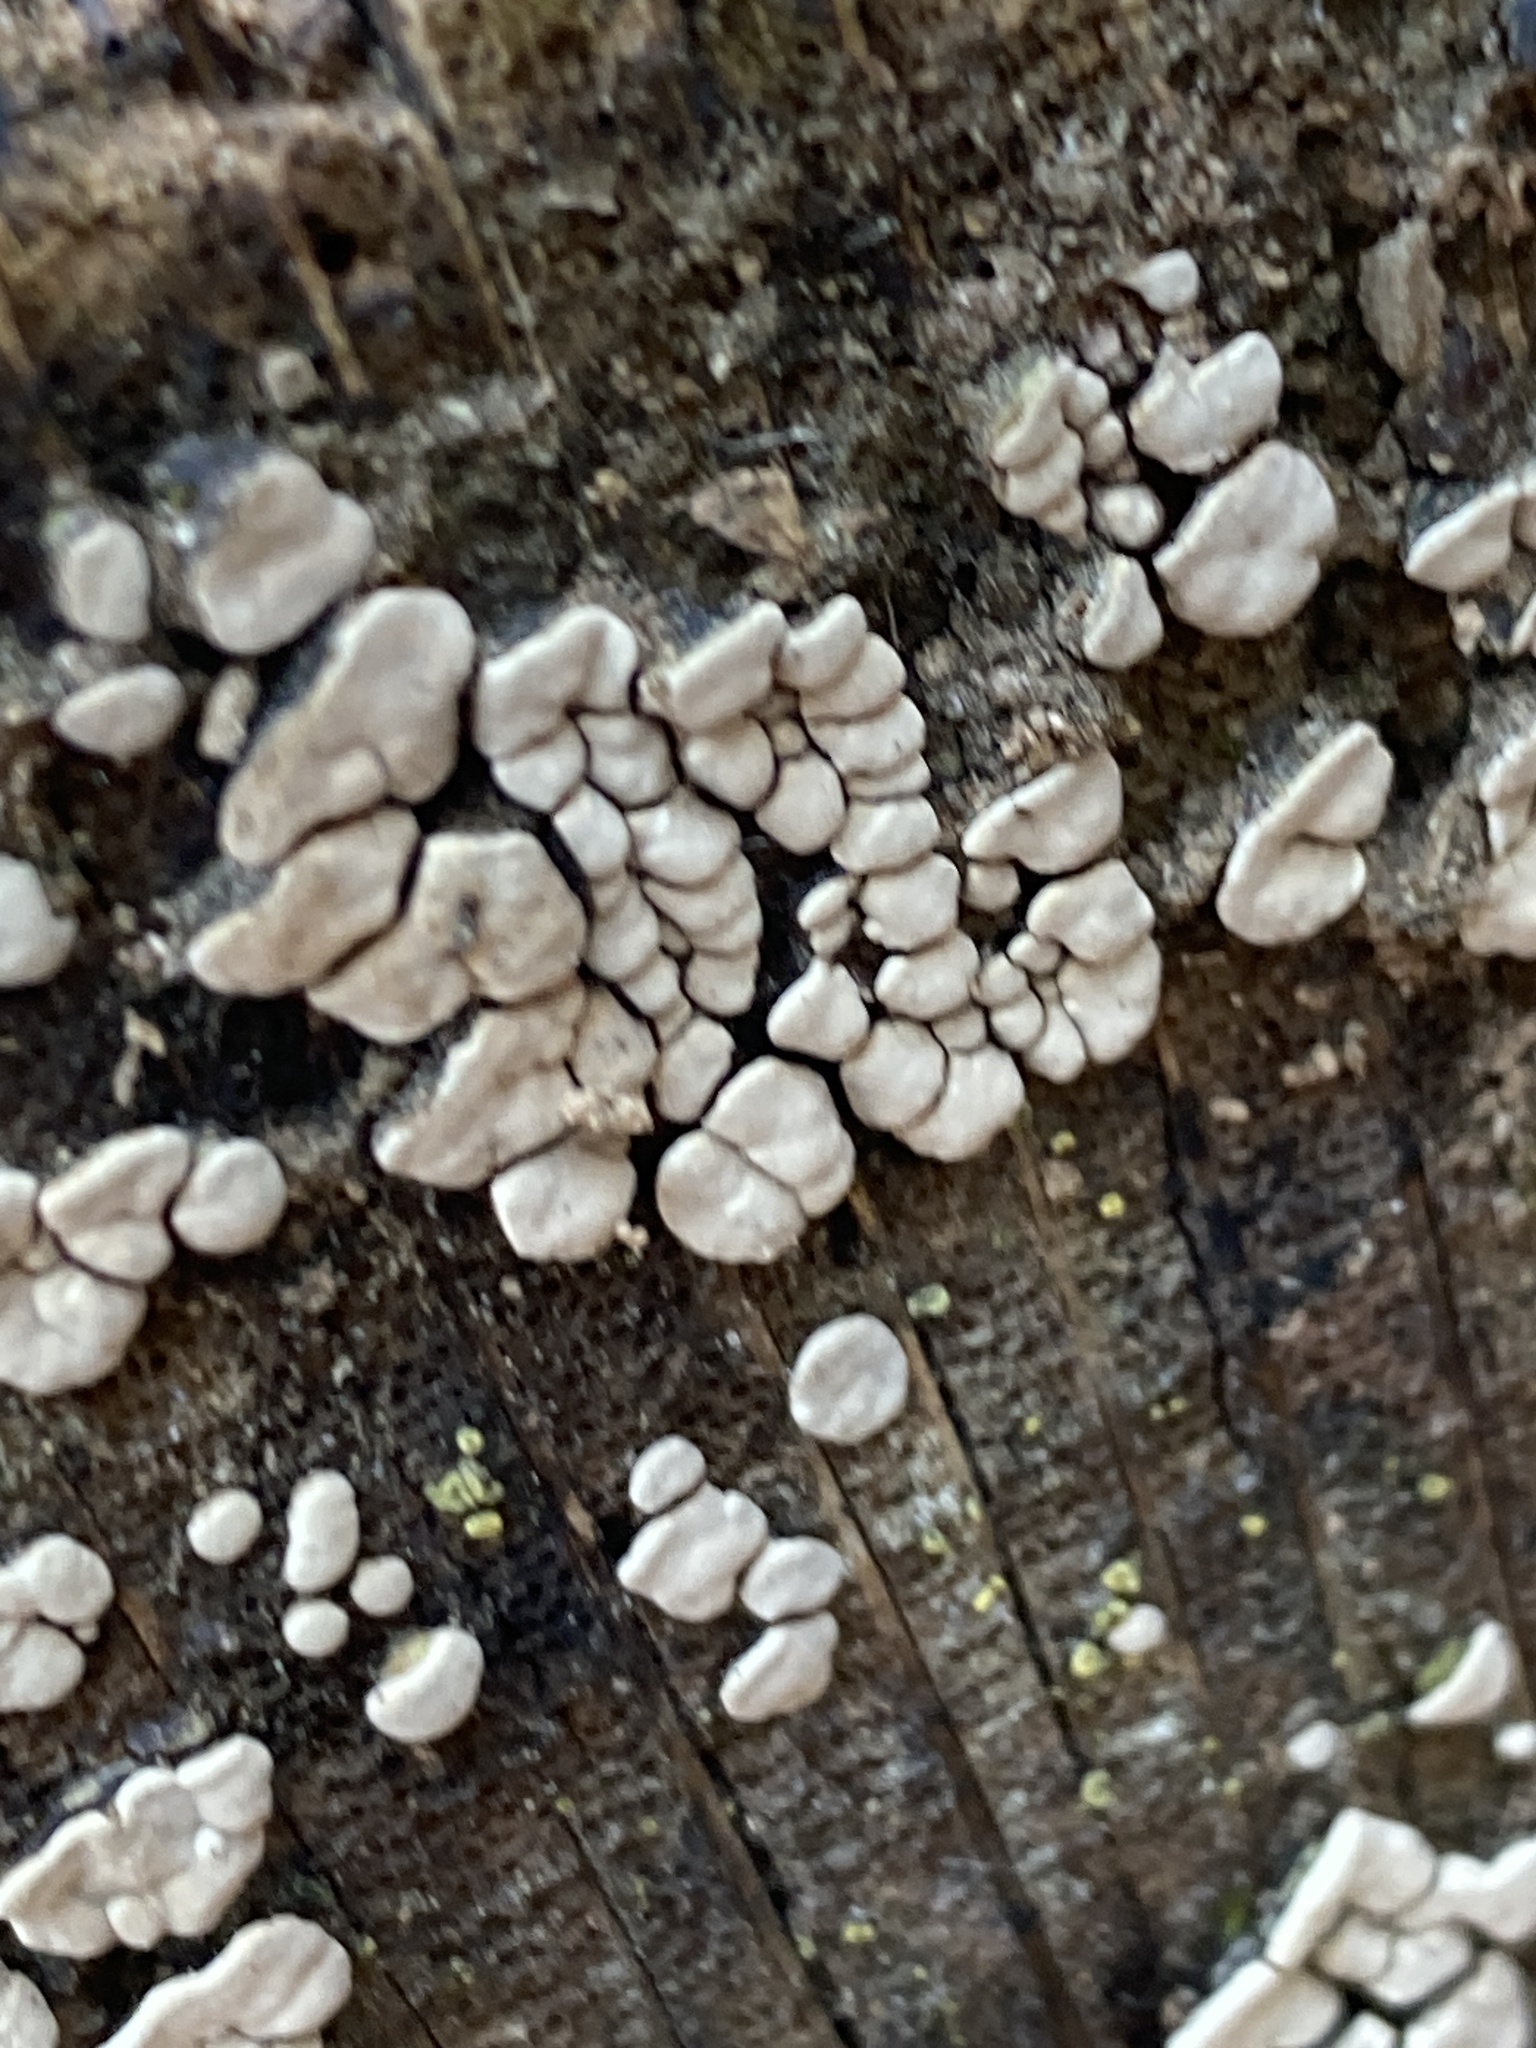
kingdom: Fungi
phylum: Basidiomycota
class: Agaricomycetes
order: Russulales
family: Stereaceae
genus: Xylobolus
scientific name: Xylobolus frustulatus
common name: Ceramic parchment
